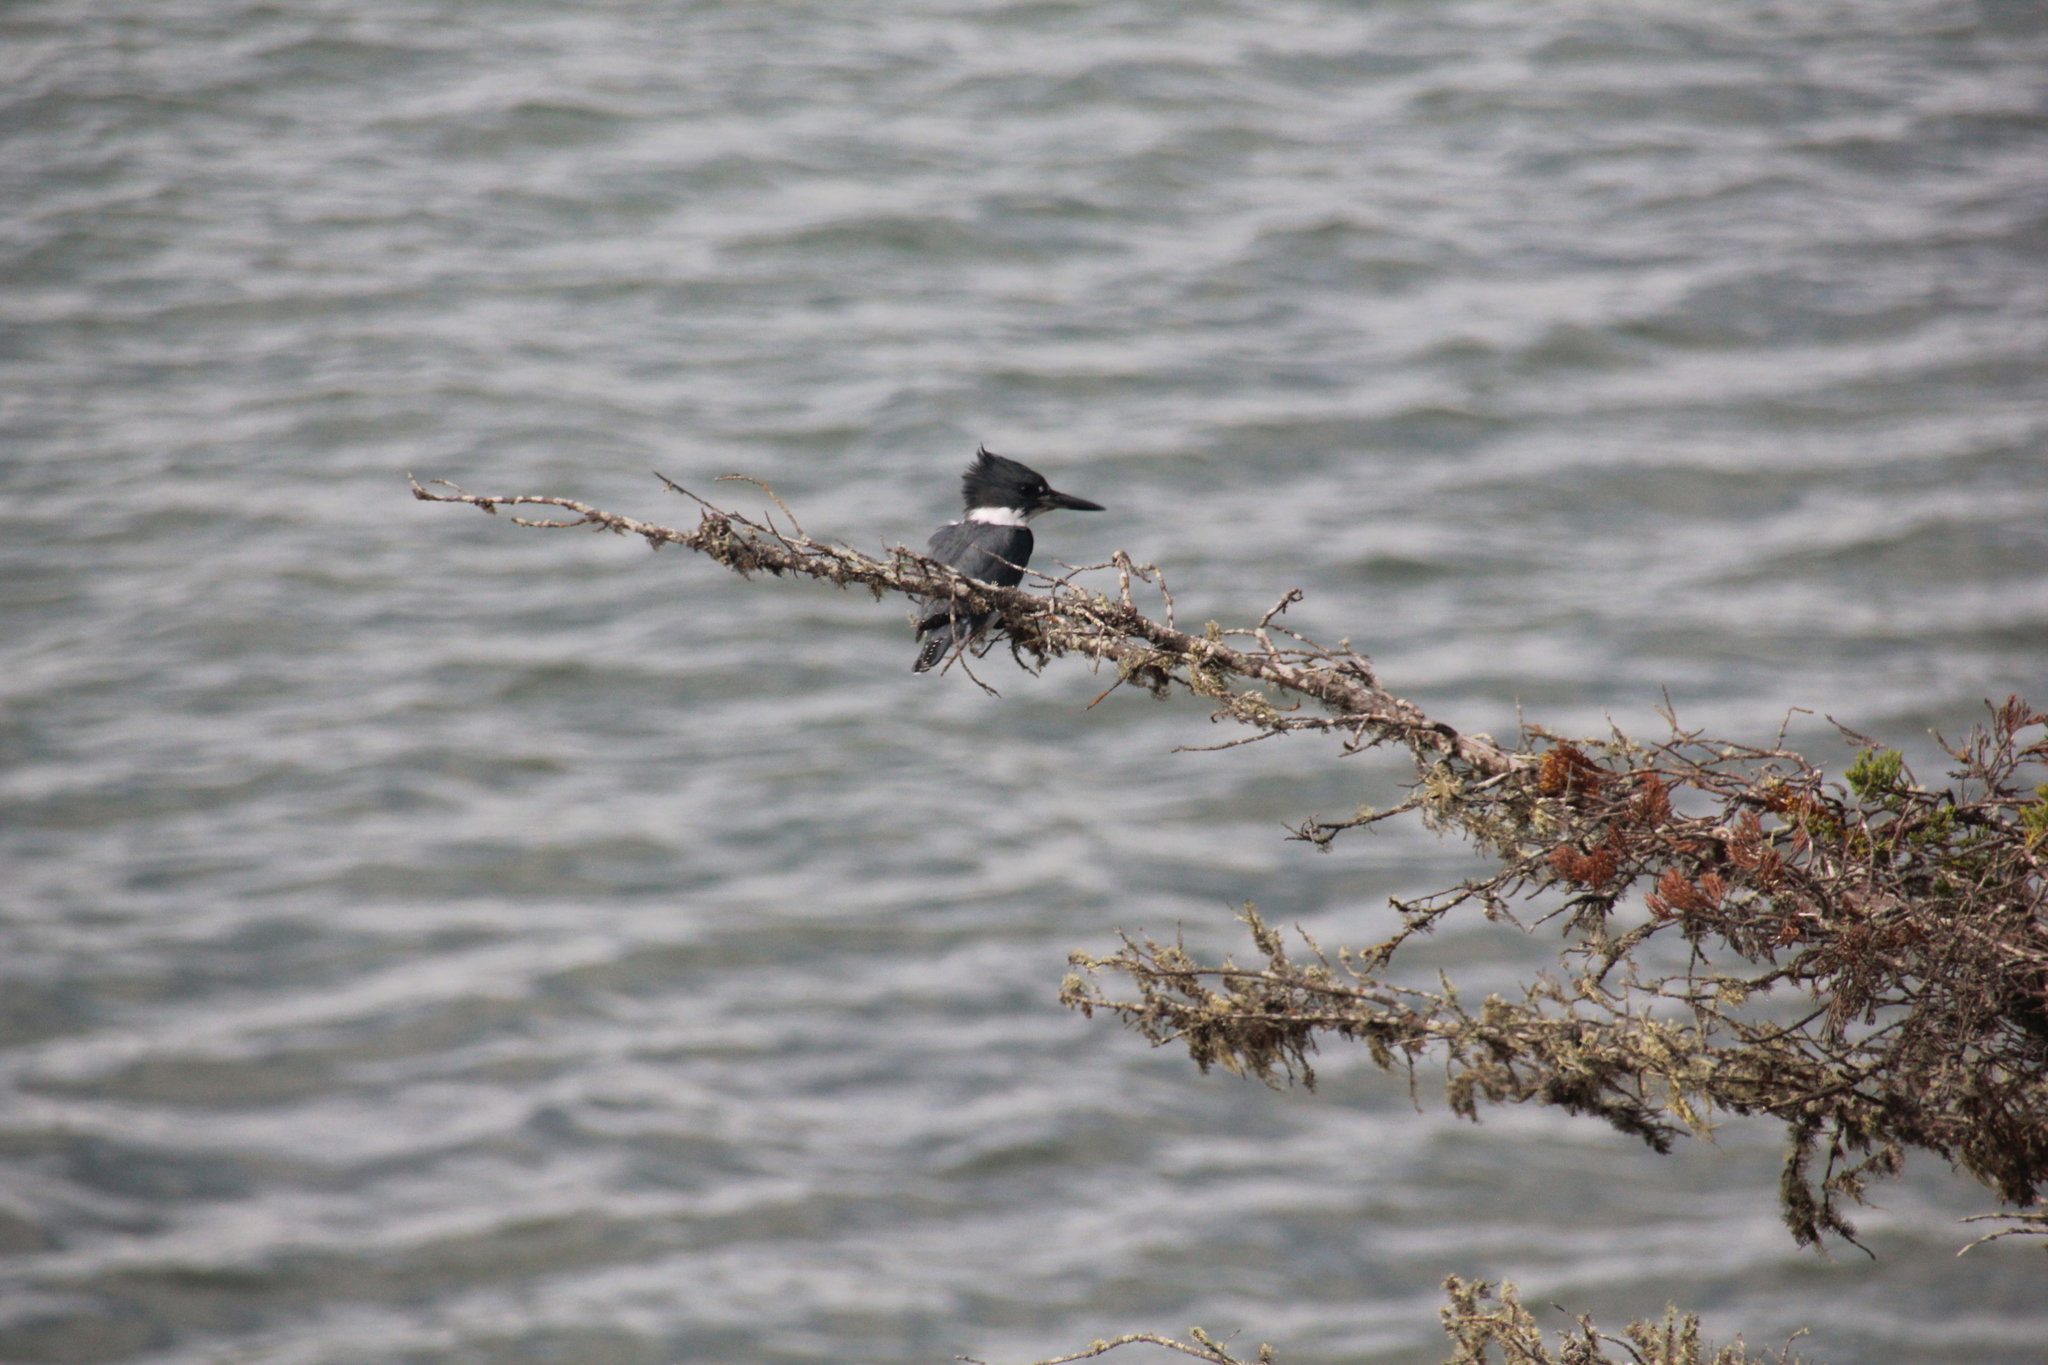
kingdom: Animalia
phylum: Chordata
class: Aves
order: Coraciiformes
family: Alcedinidae
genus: Megaceryle
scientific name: Megaceryle alcyon
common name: Belted kingfisher
